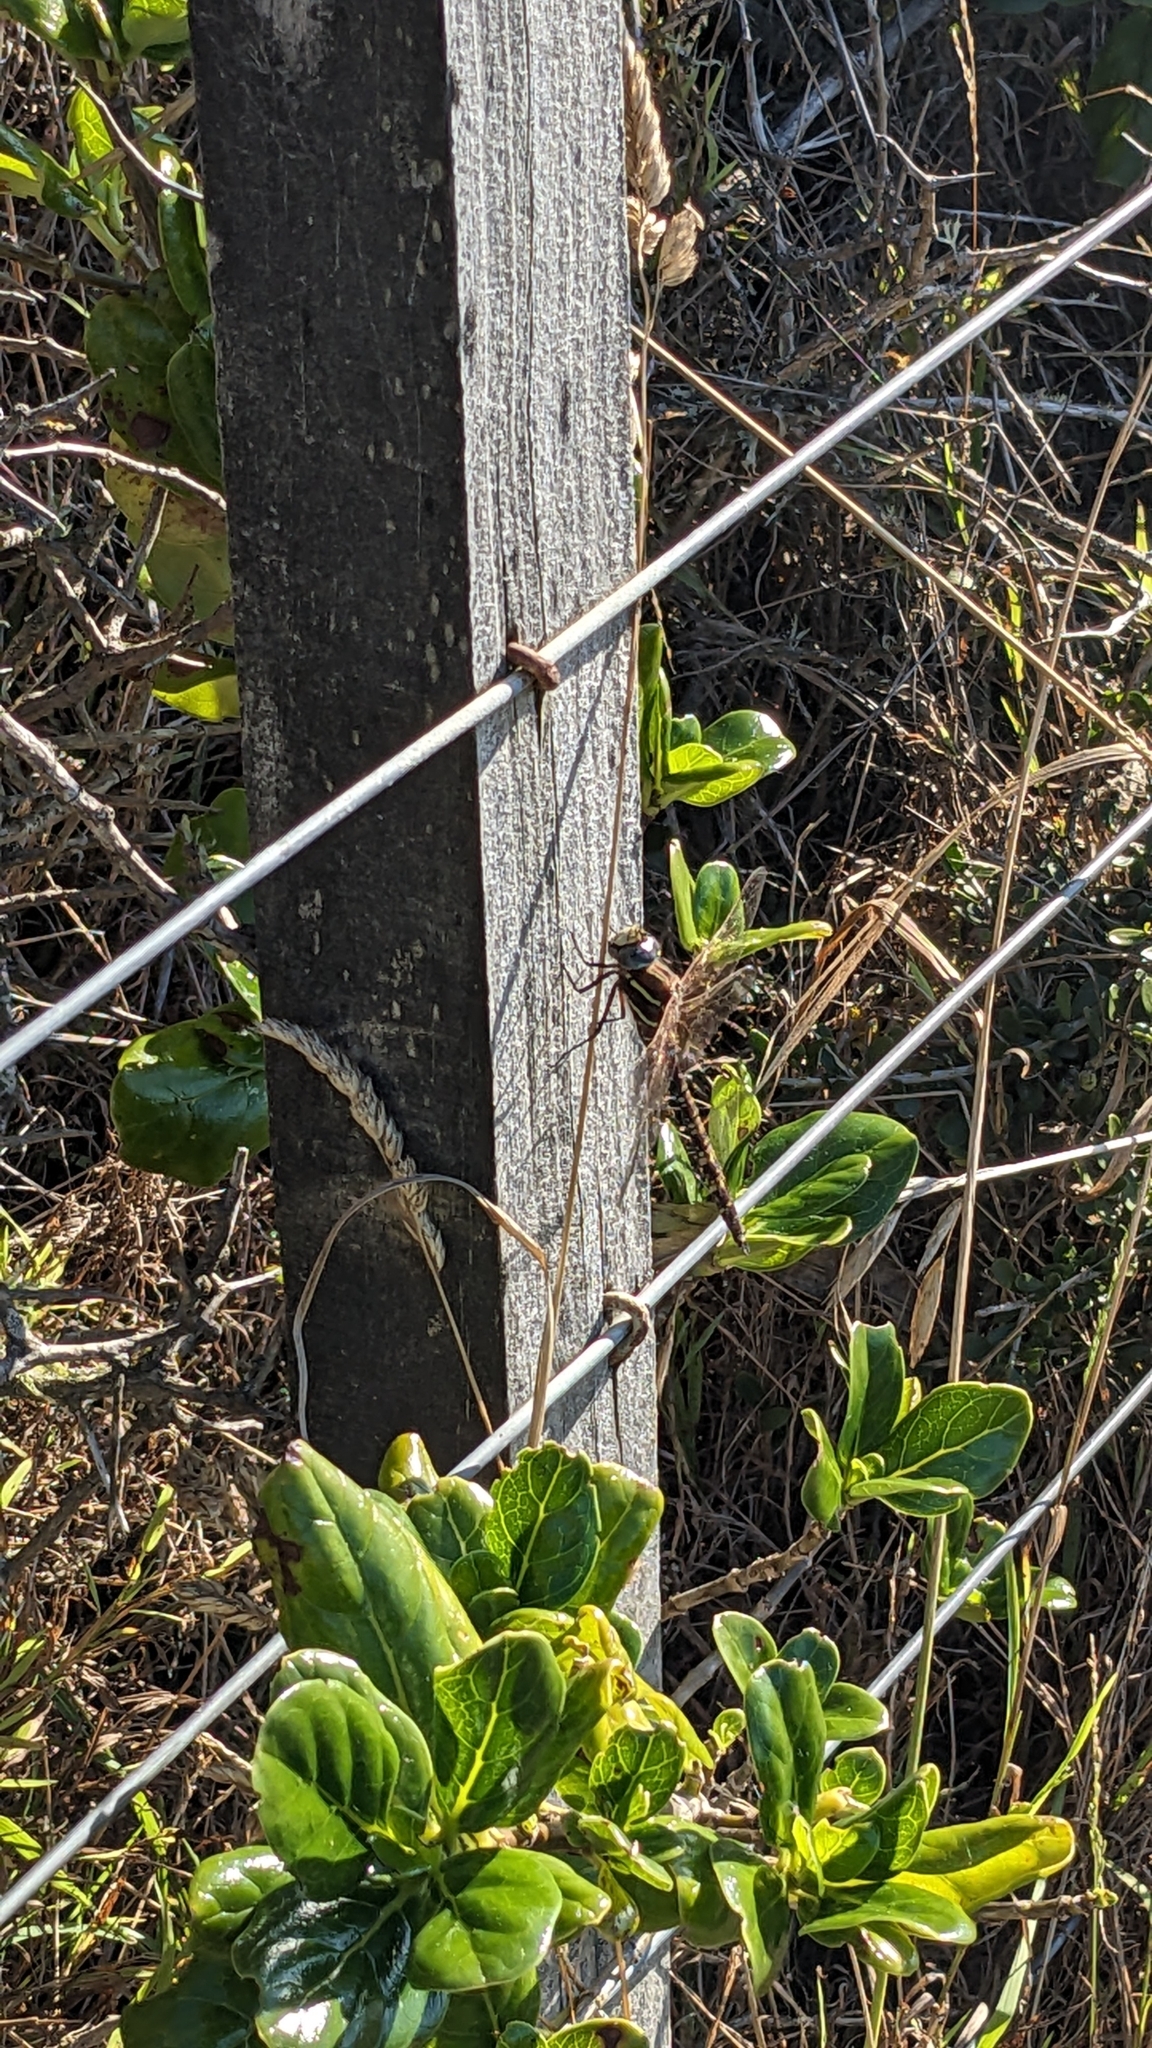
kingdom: Animalia
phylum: Arthropoda
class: Insecta
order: Odonata
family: Aeshnidae
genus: Aeshna
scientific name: Aeshna brevistyla
